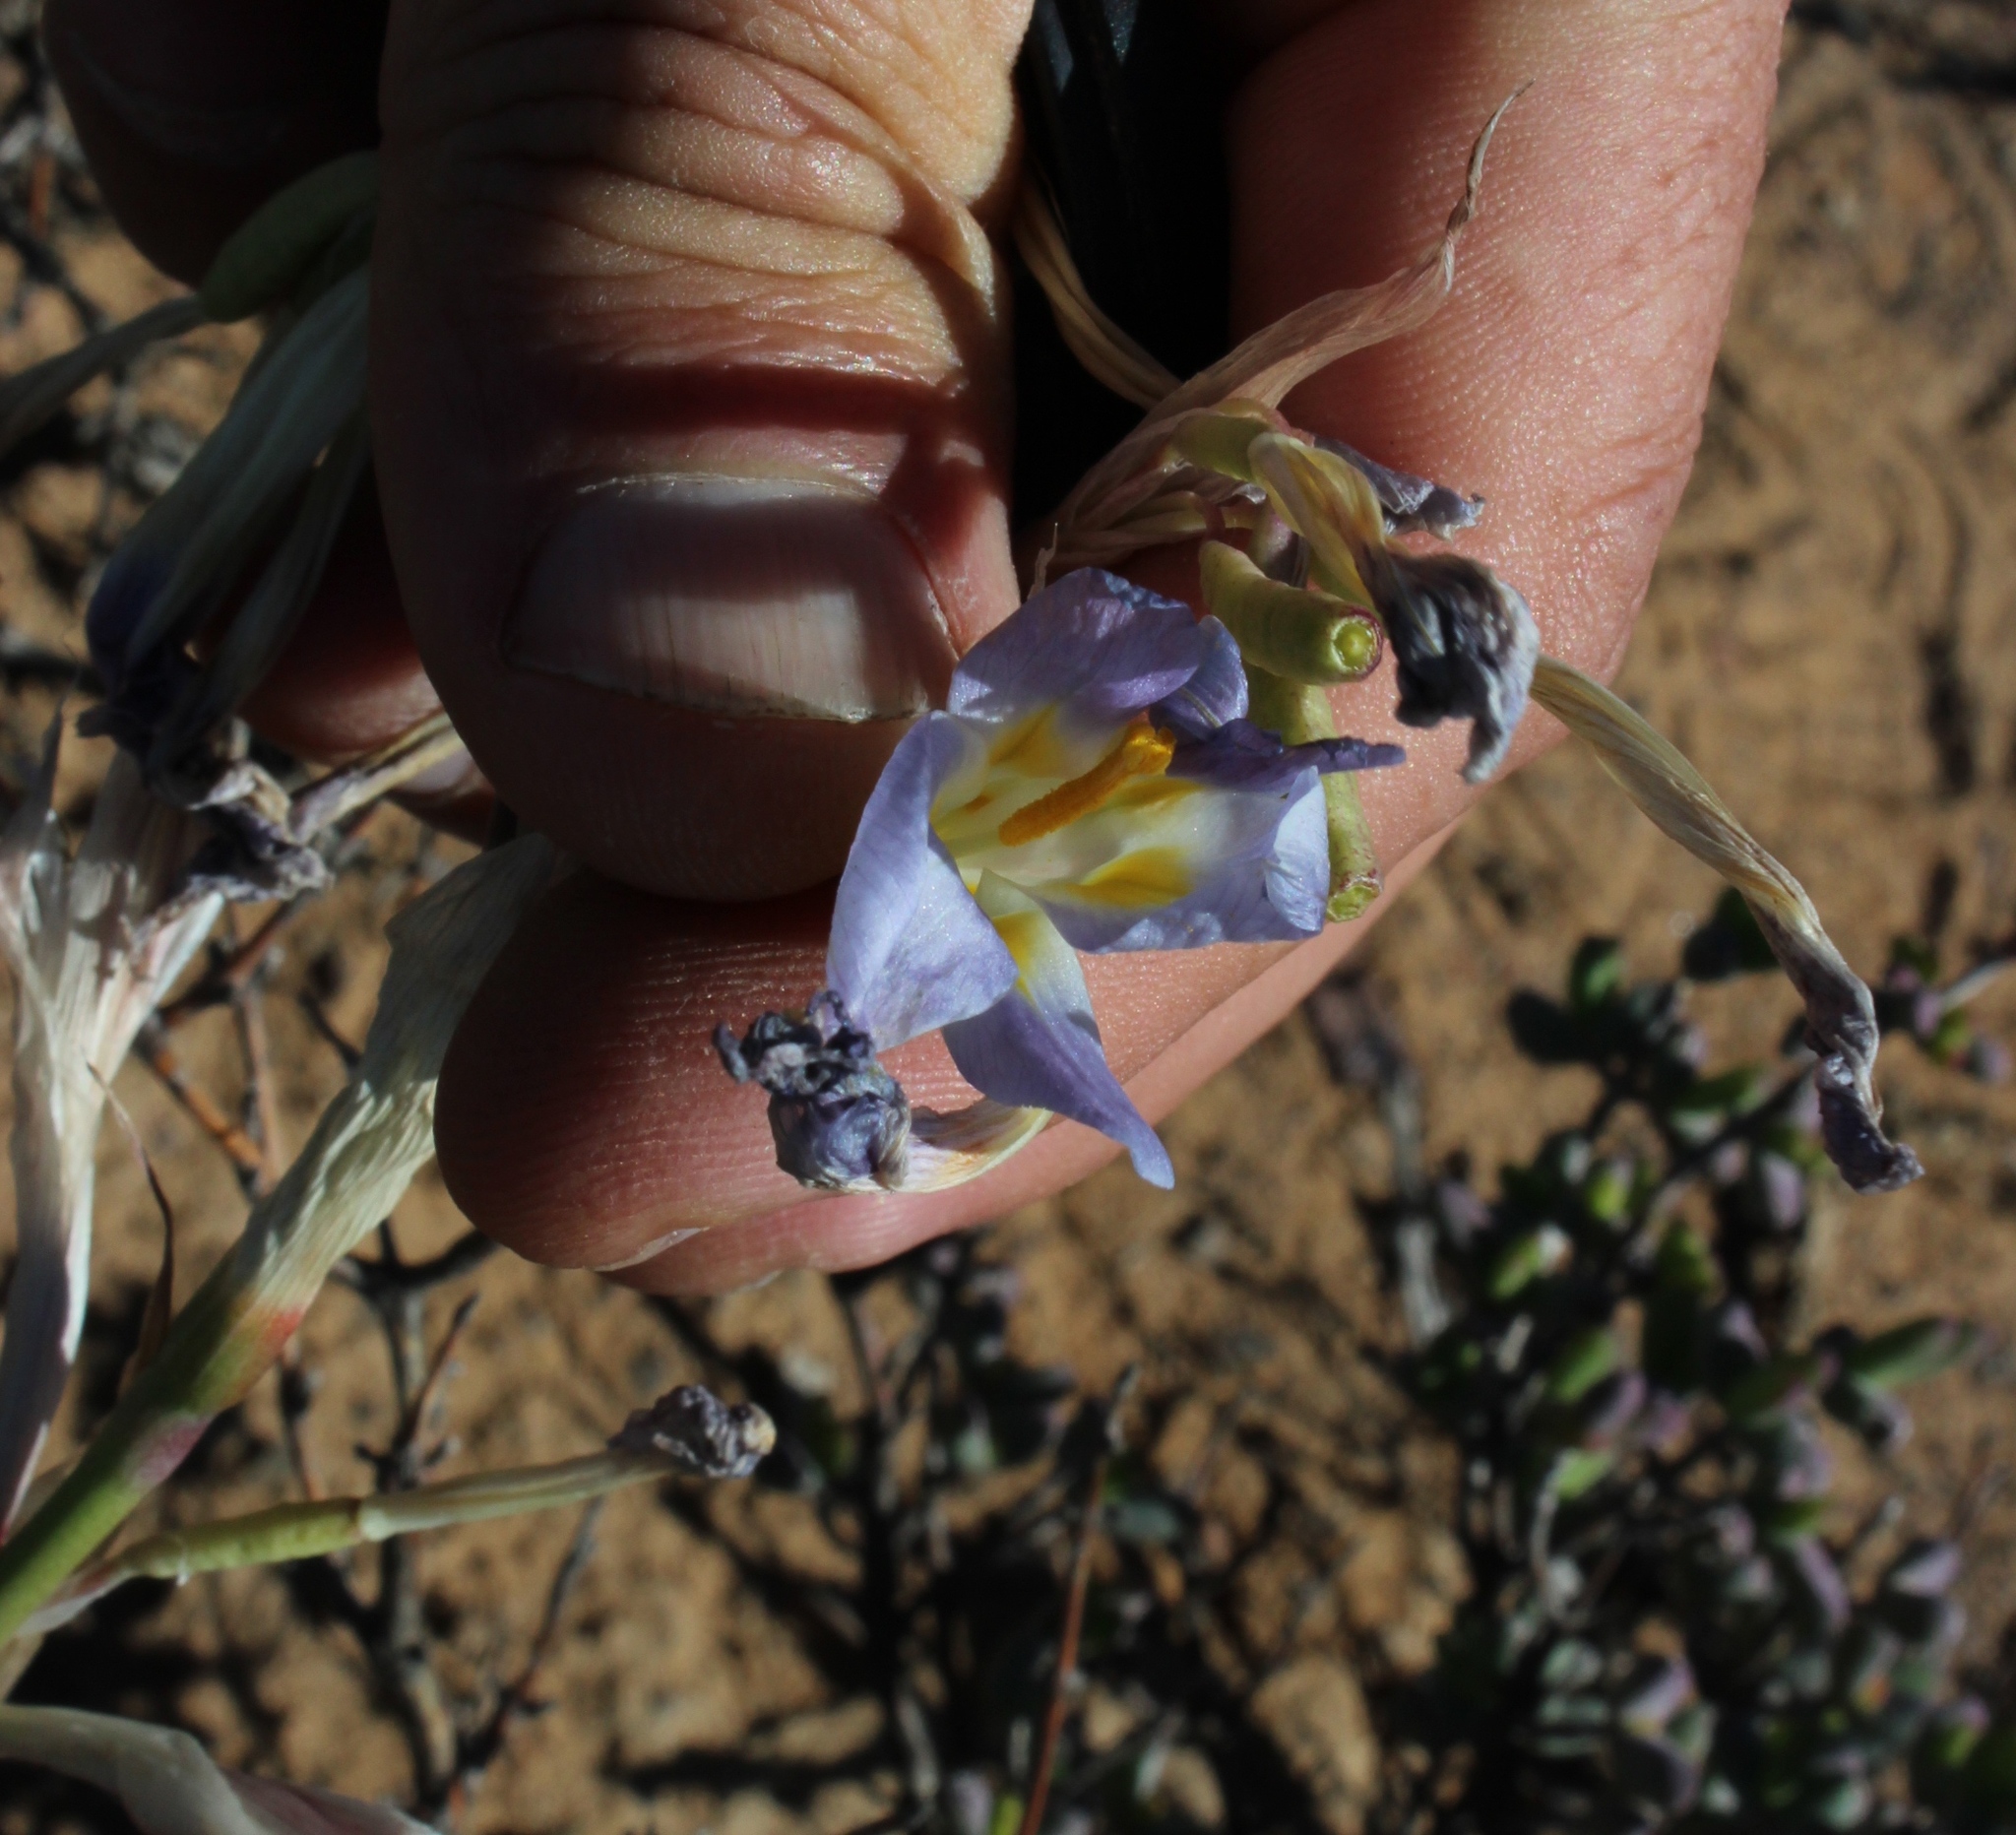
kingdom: Plantae
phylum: Tracheophyta
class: Liliopsida
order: Asparagales
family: Iridaceae
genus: Moraea
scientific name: Moraea speciosa
